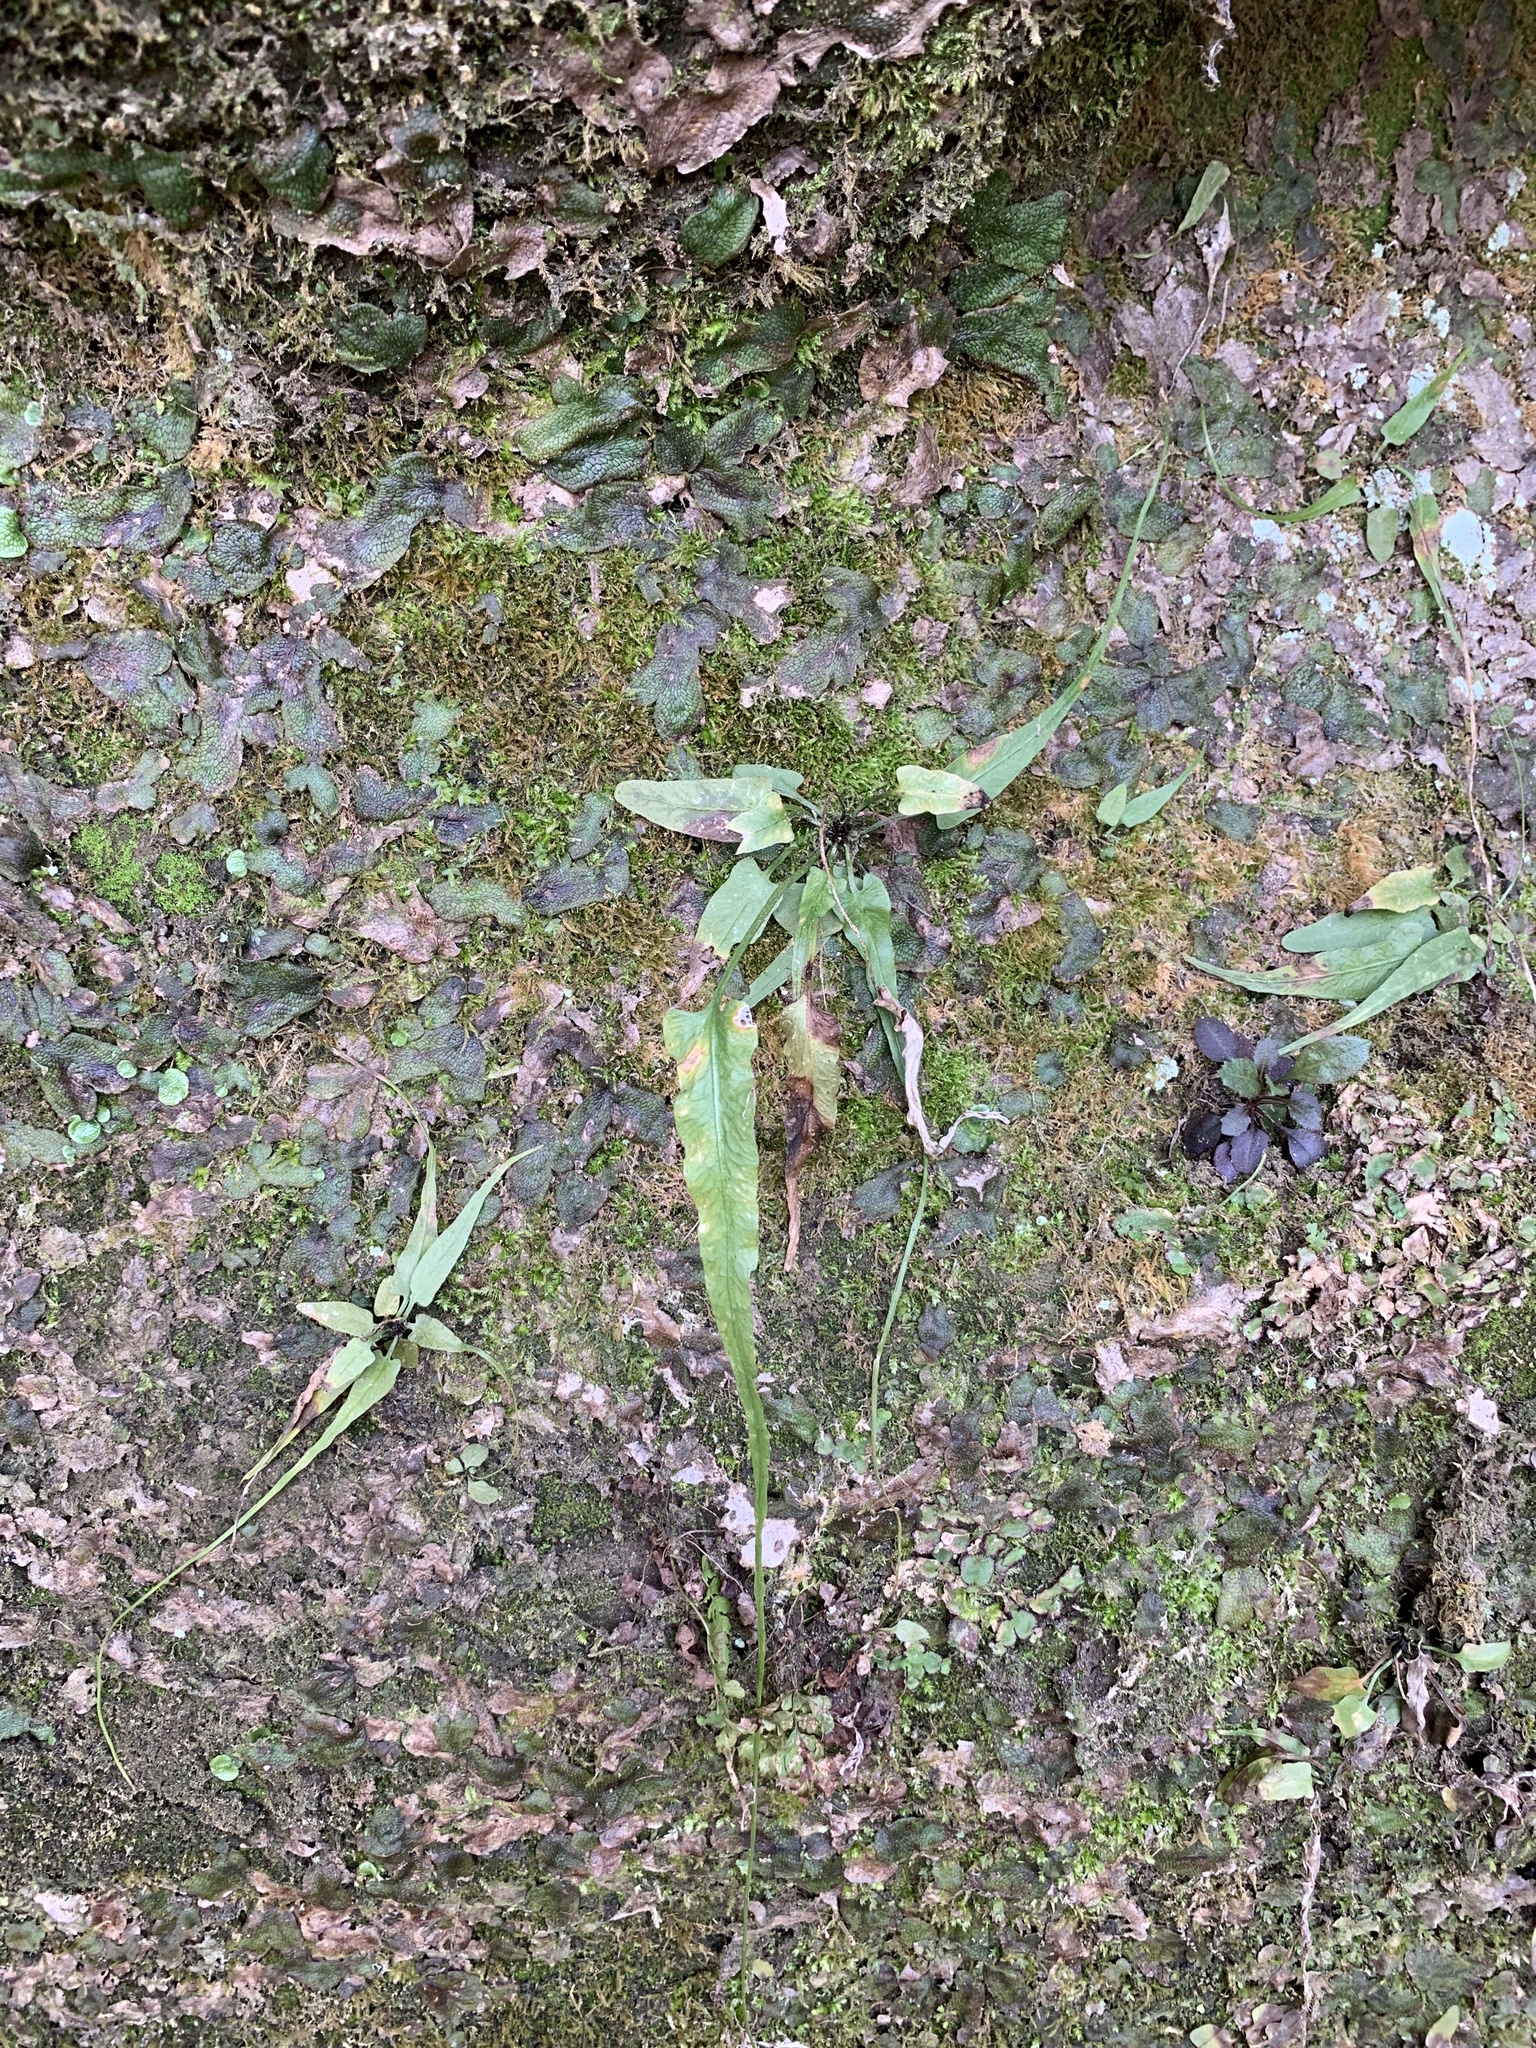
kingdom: Plantae
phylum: Tracheophyta
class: Polypodiopsida
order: Polypodiales
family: Aspleniaceae
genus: Asplenium
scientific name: Asplenium rhizophyllum
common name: Walking fern
